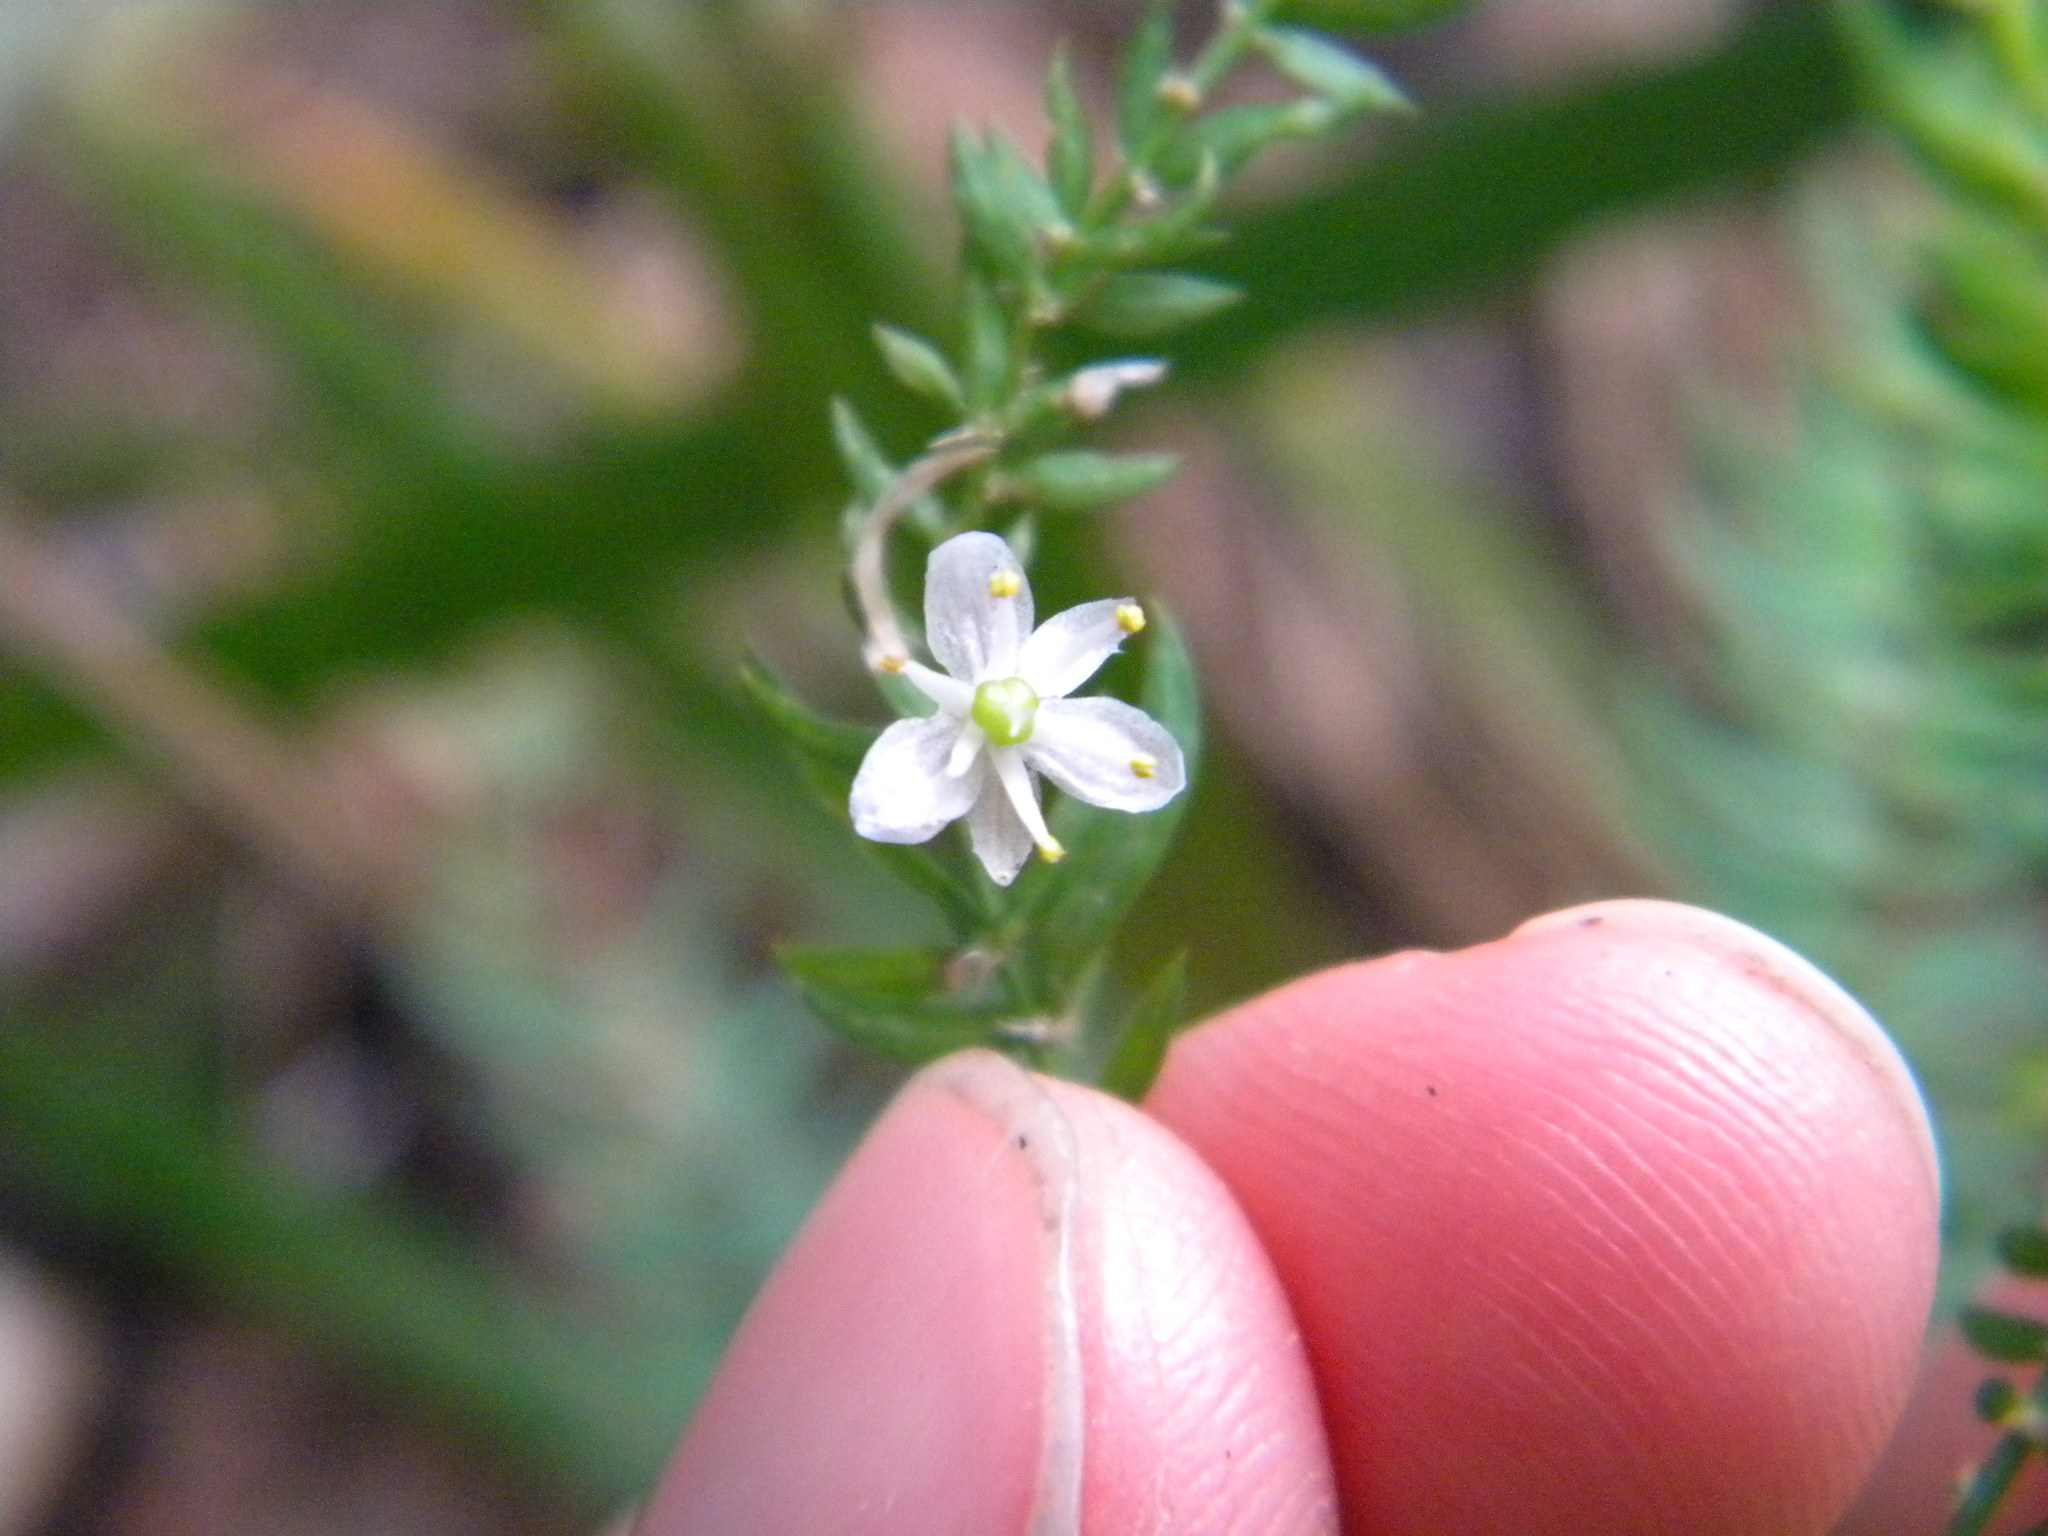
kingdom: Plantae
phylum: Tracheophyta
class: Liliopsida
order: Asparagales
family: Asparagaceae
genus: Asparagus
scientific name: Asparagus scandens
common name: Asparagus-fern
